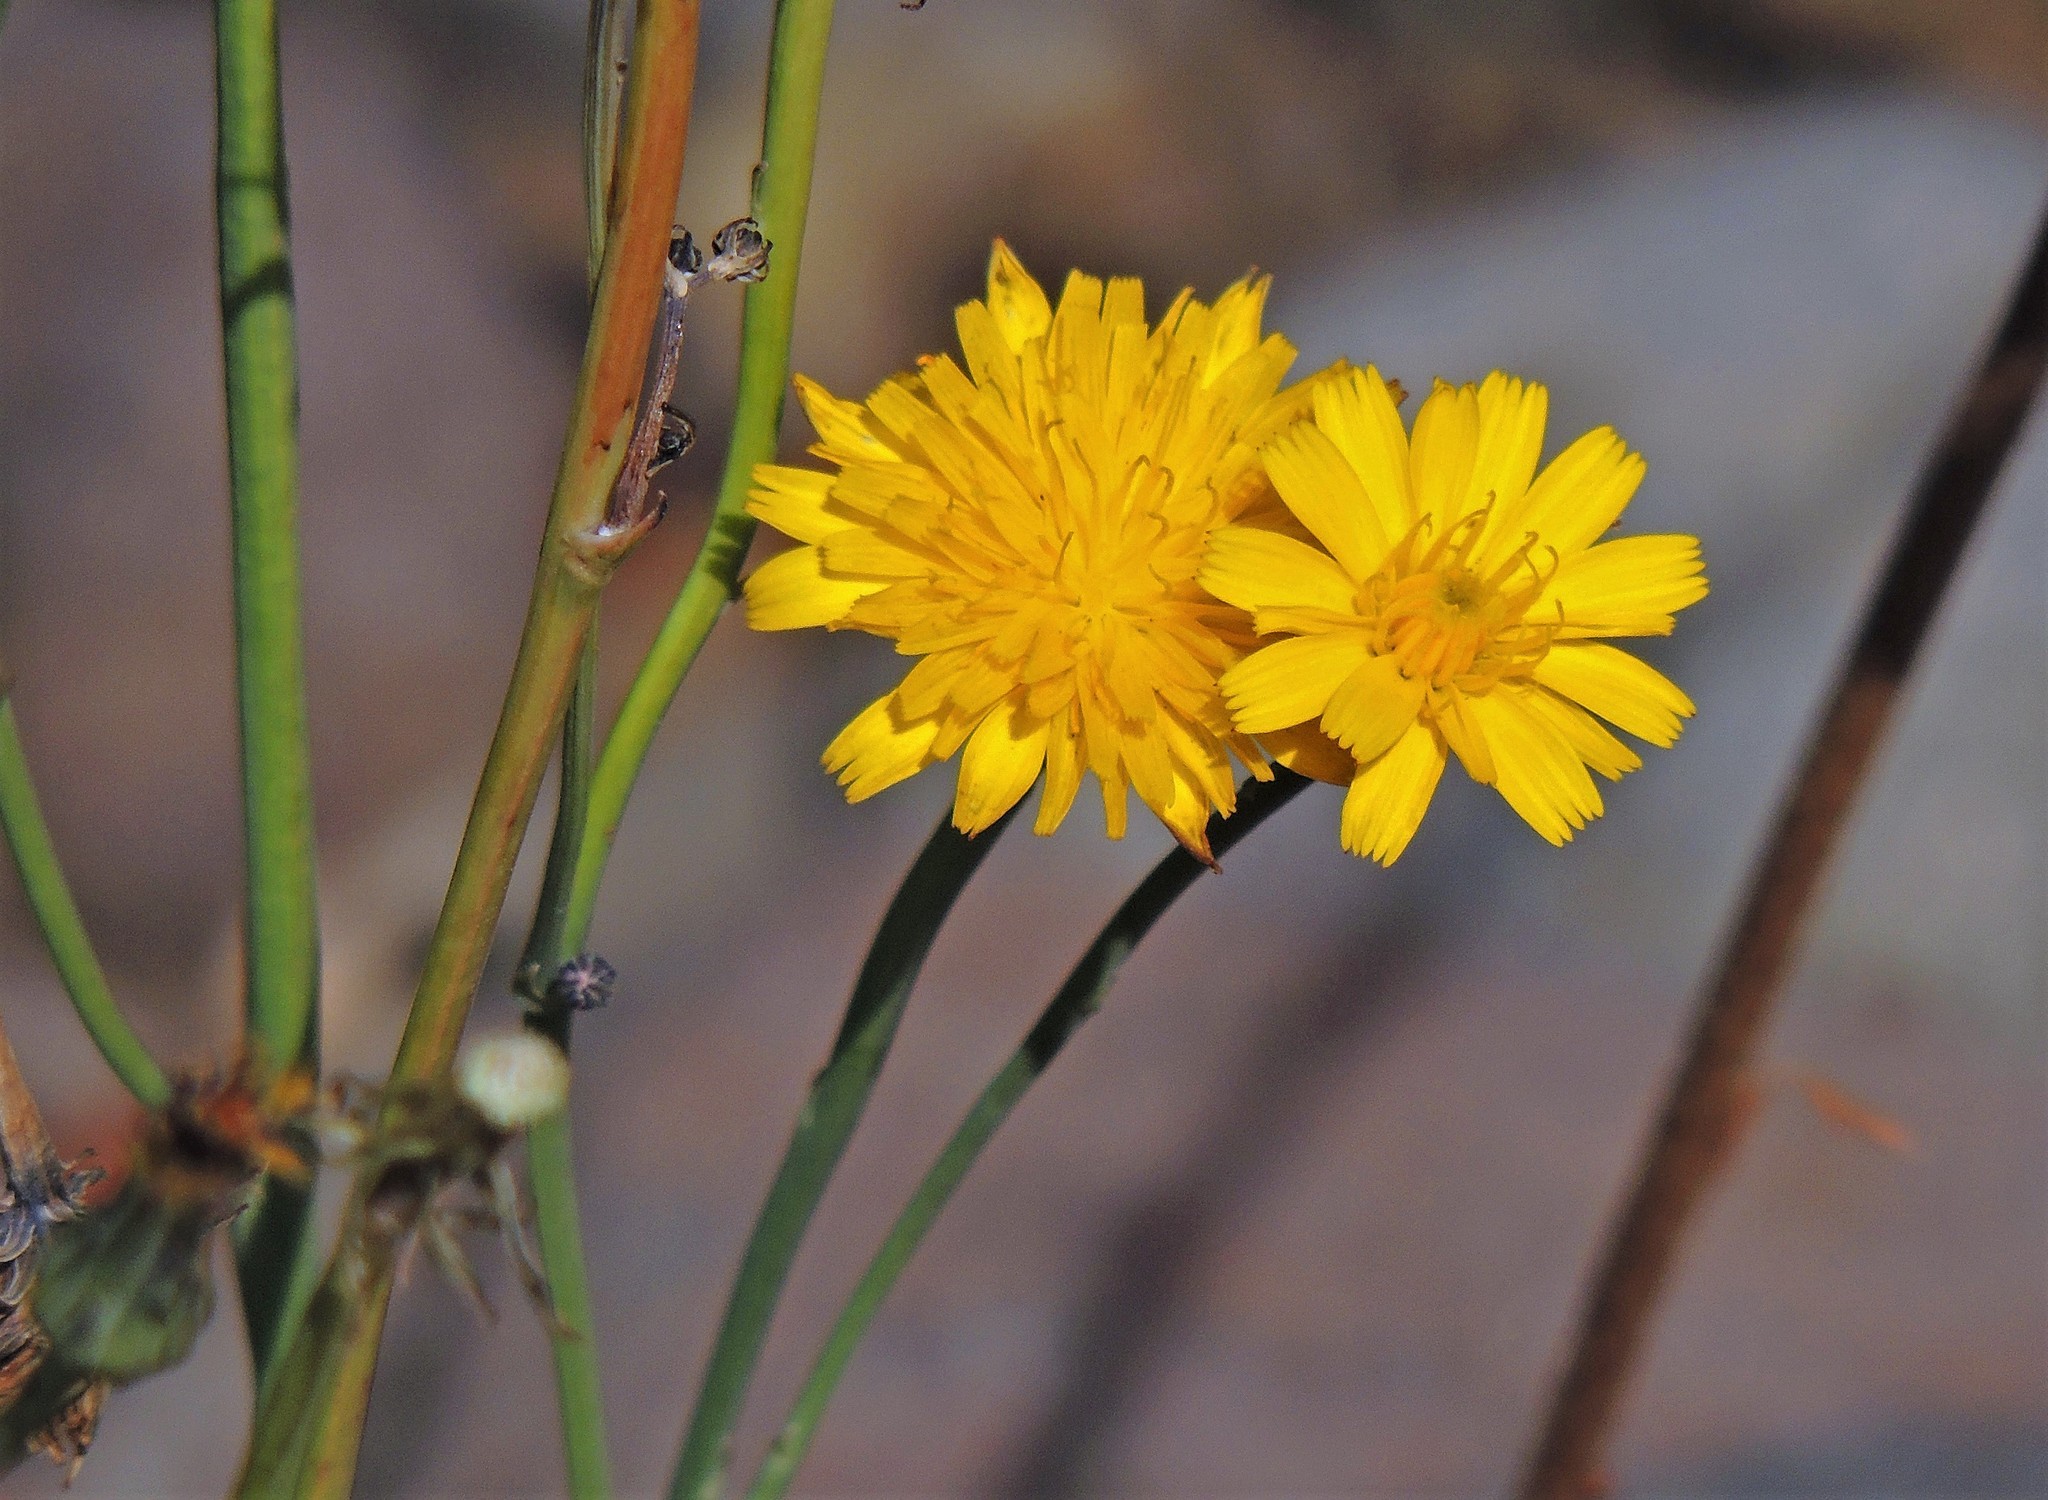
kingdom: Plantae
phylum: Tracheophyta
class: Magnoliopsida
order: Asterales
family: Asteraceae
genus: Hypochaeris
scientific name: Hypochaeris radicata
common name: Flatweed
